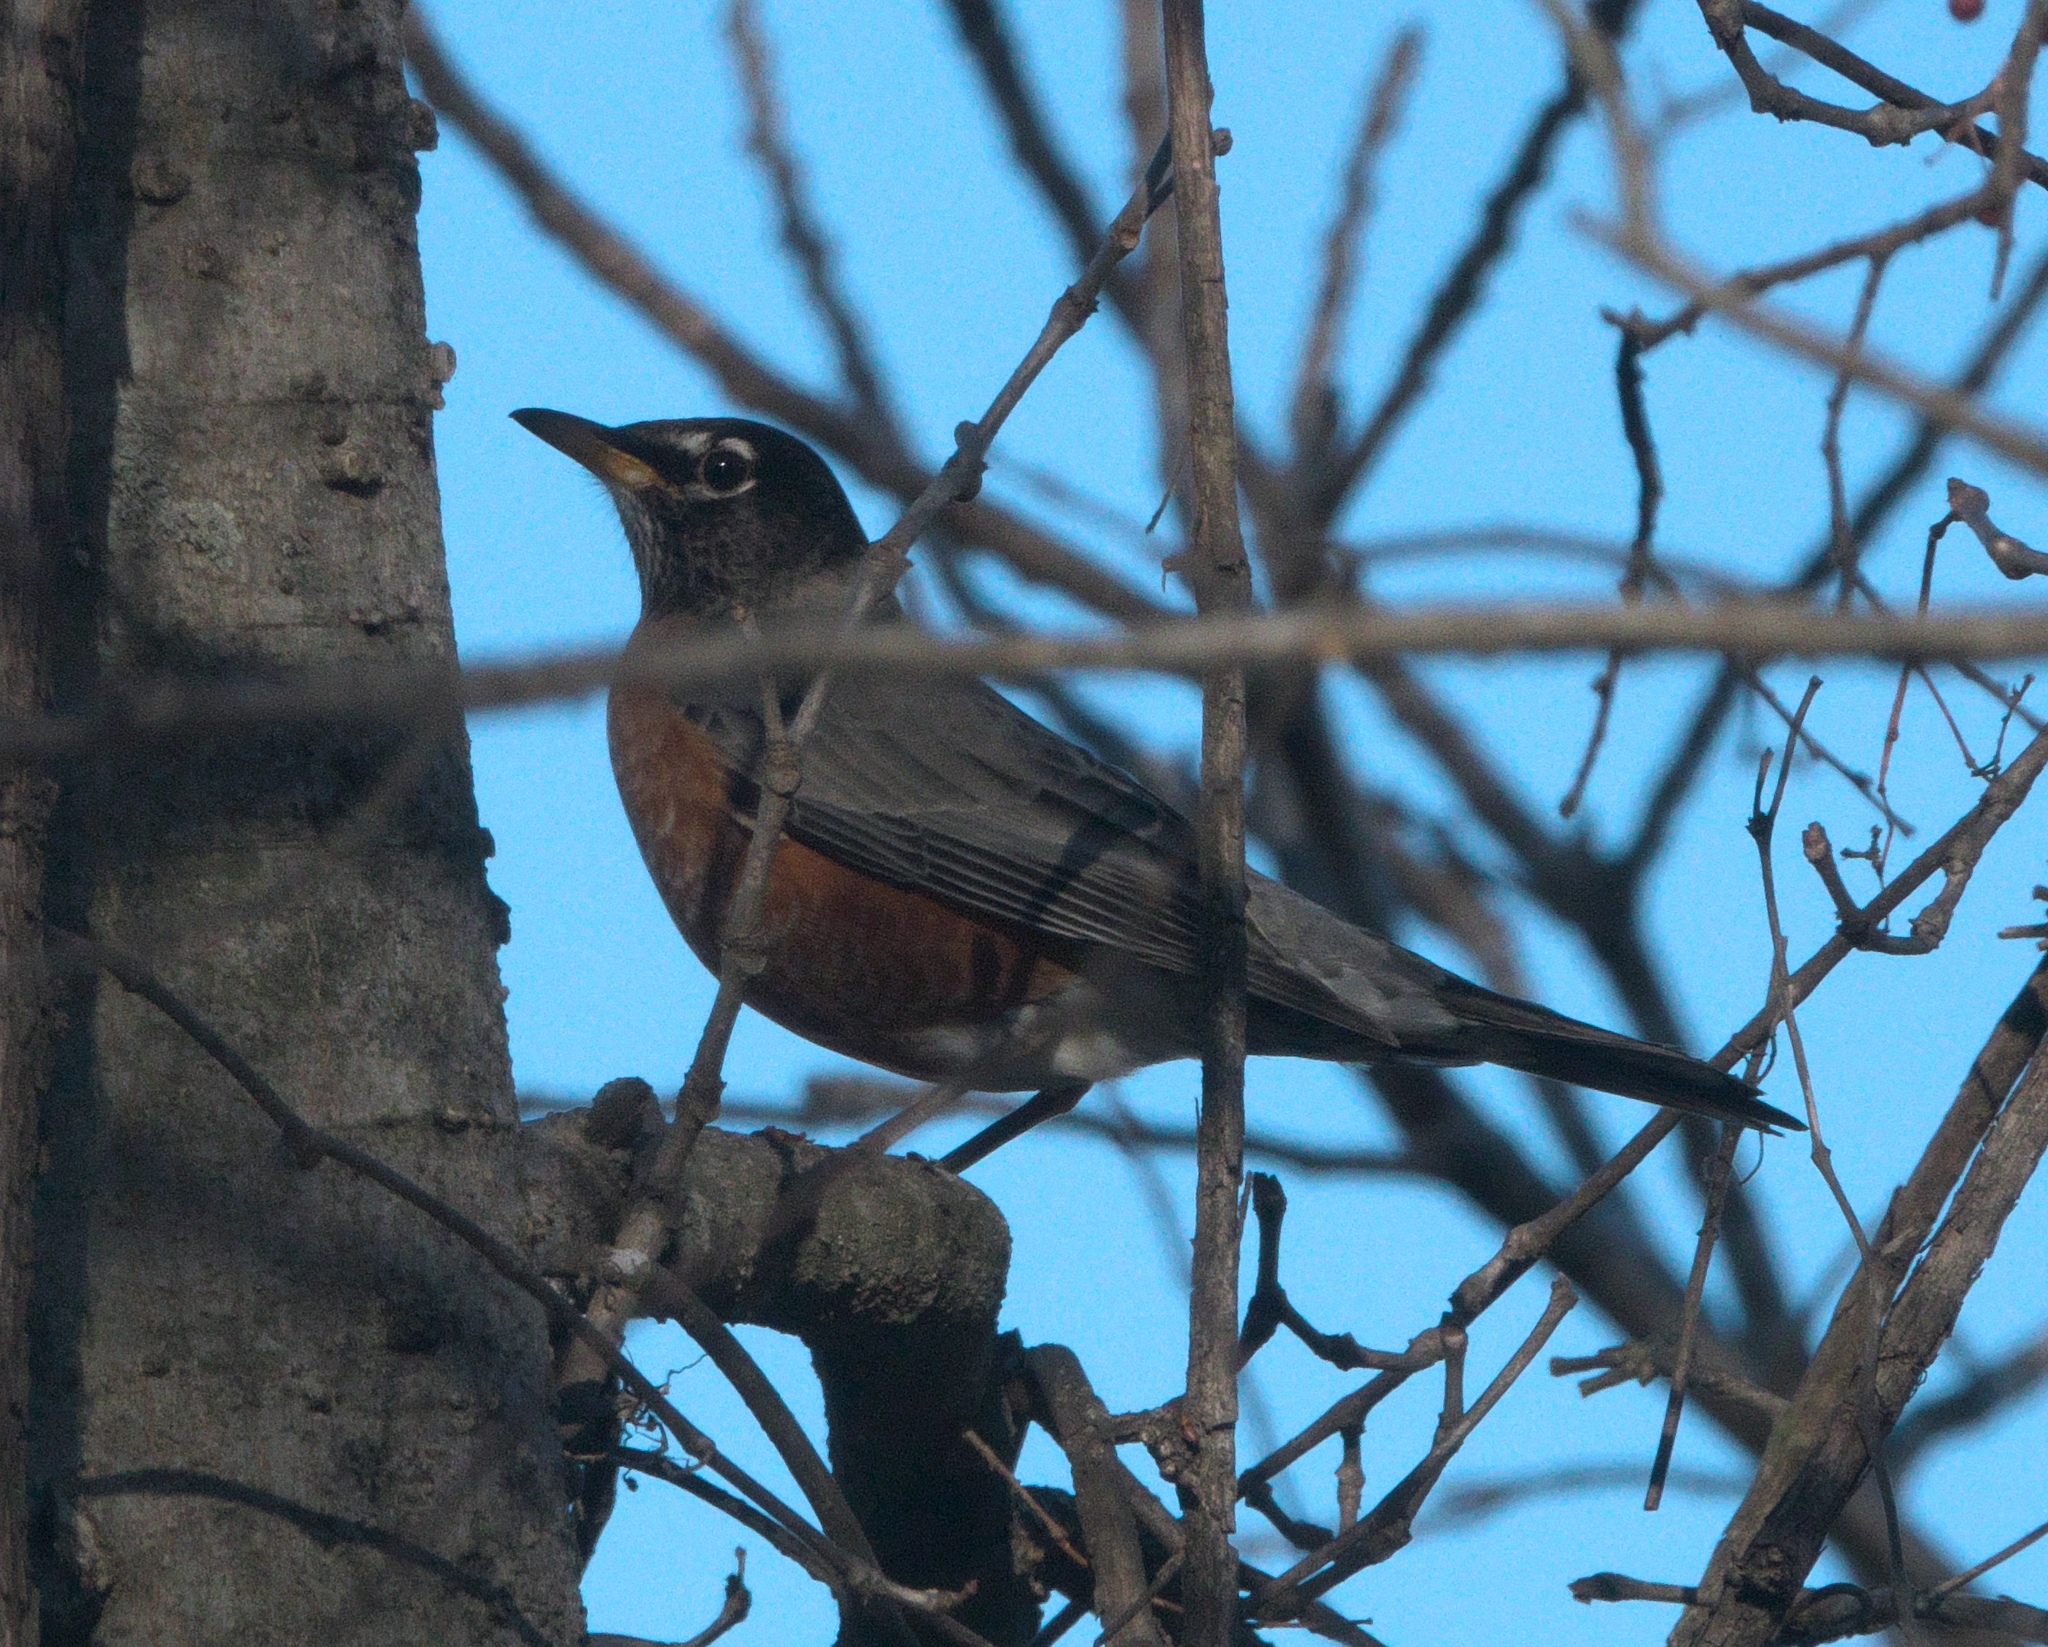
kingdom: Animalia
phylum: Chordata
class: Aves
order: Passeriformes
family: Turdidae
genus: Turdus
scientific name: Turdus migratorius
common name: American robin
